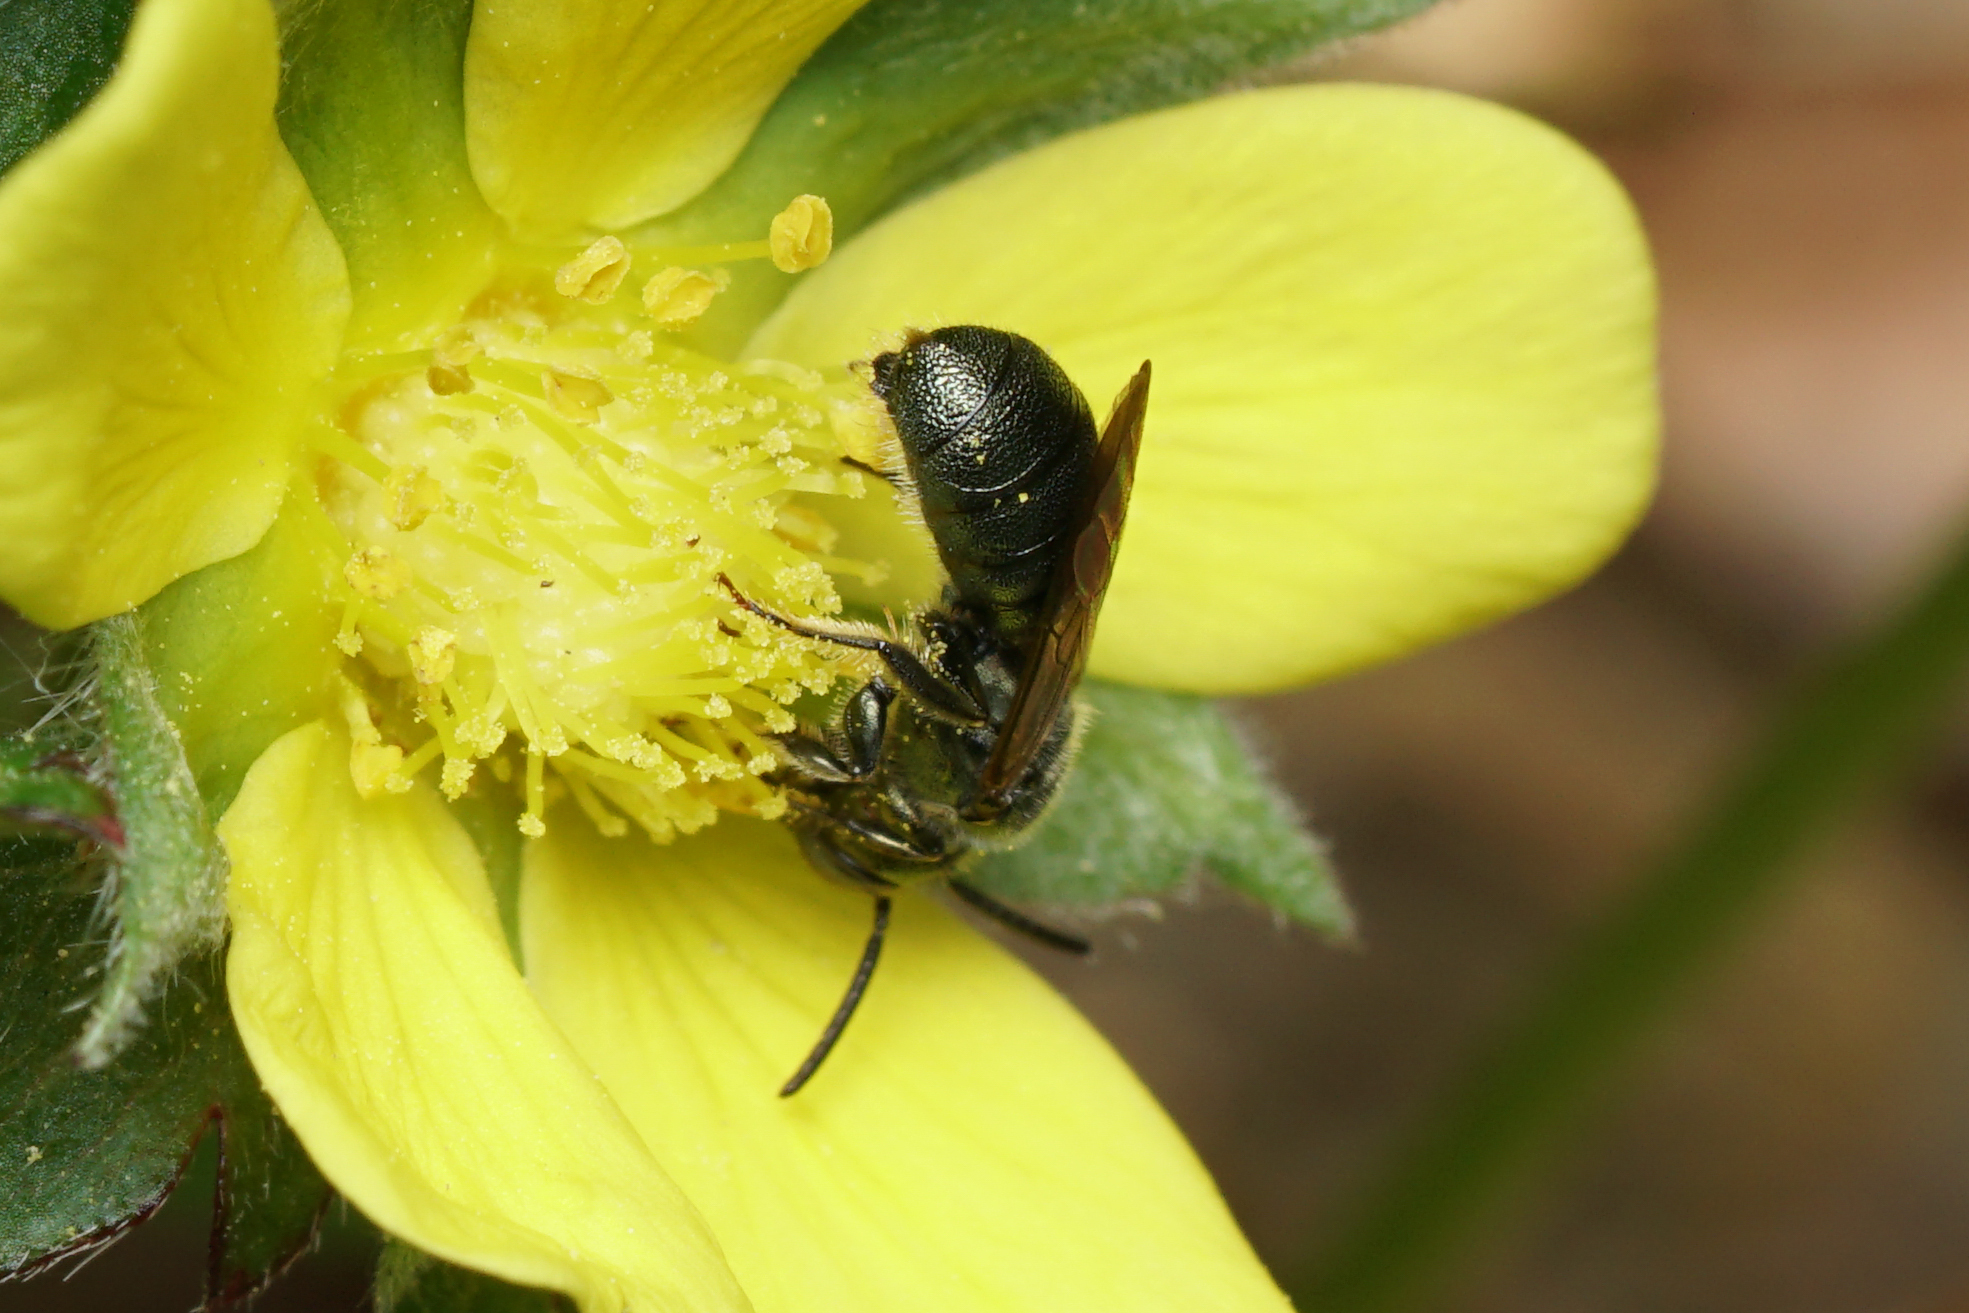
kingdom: Animalia
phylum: Arthropoda
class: Insecta
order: Hymenoptera
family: Apidae
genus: Ceratina
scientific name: Ceratina calcarata
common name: Spurred carpenter bee
